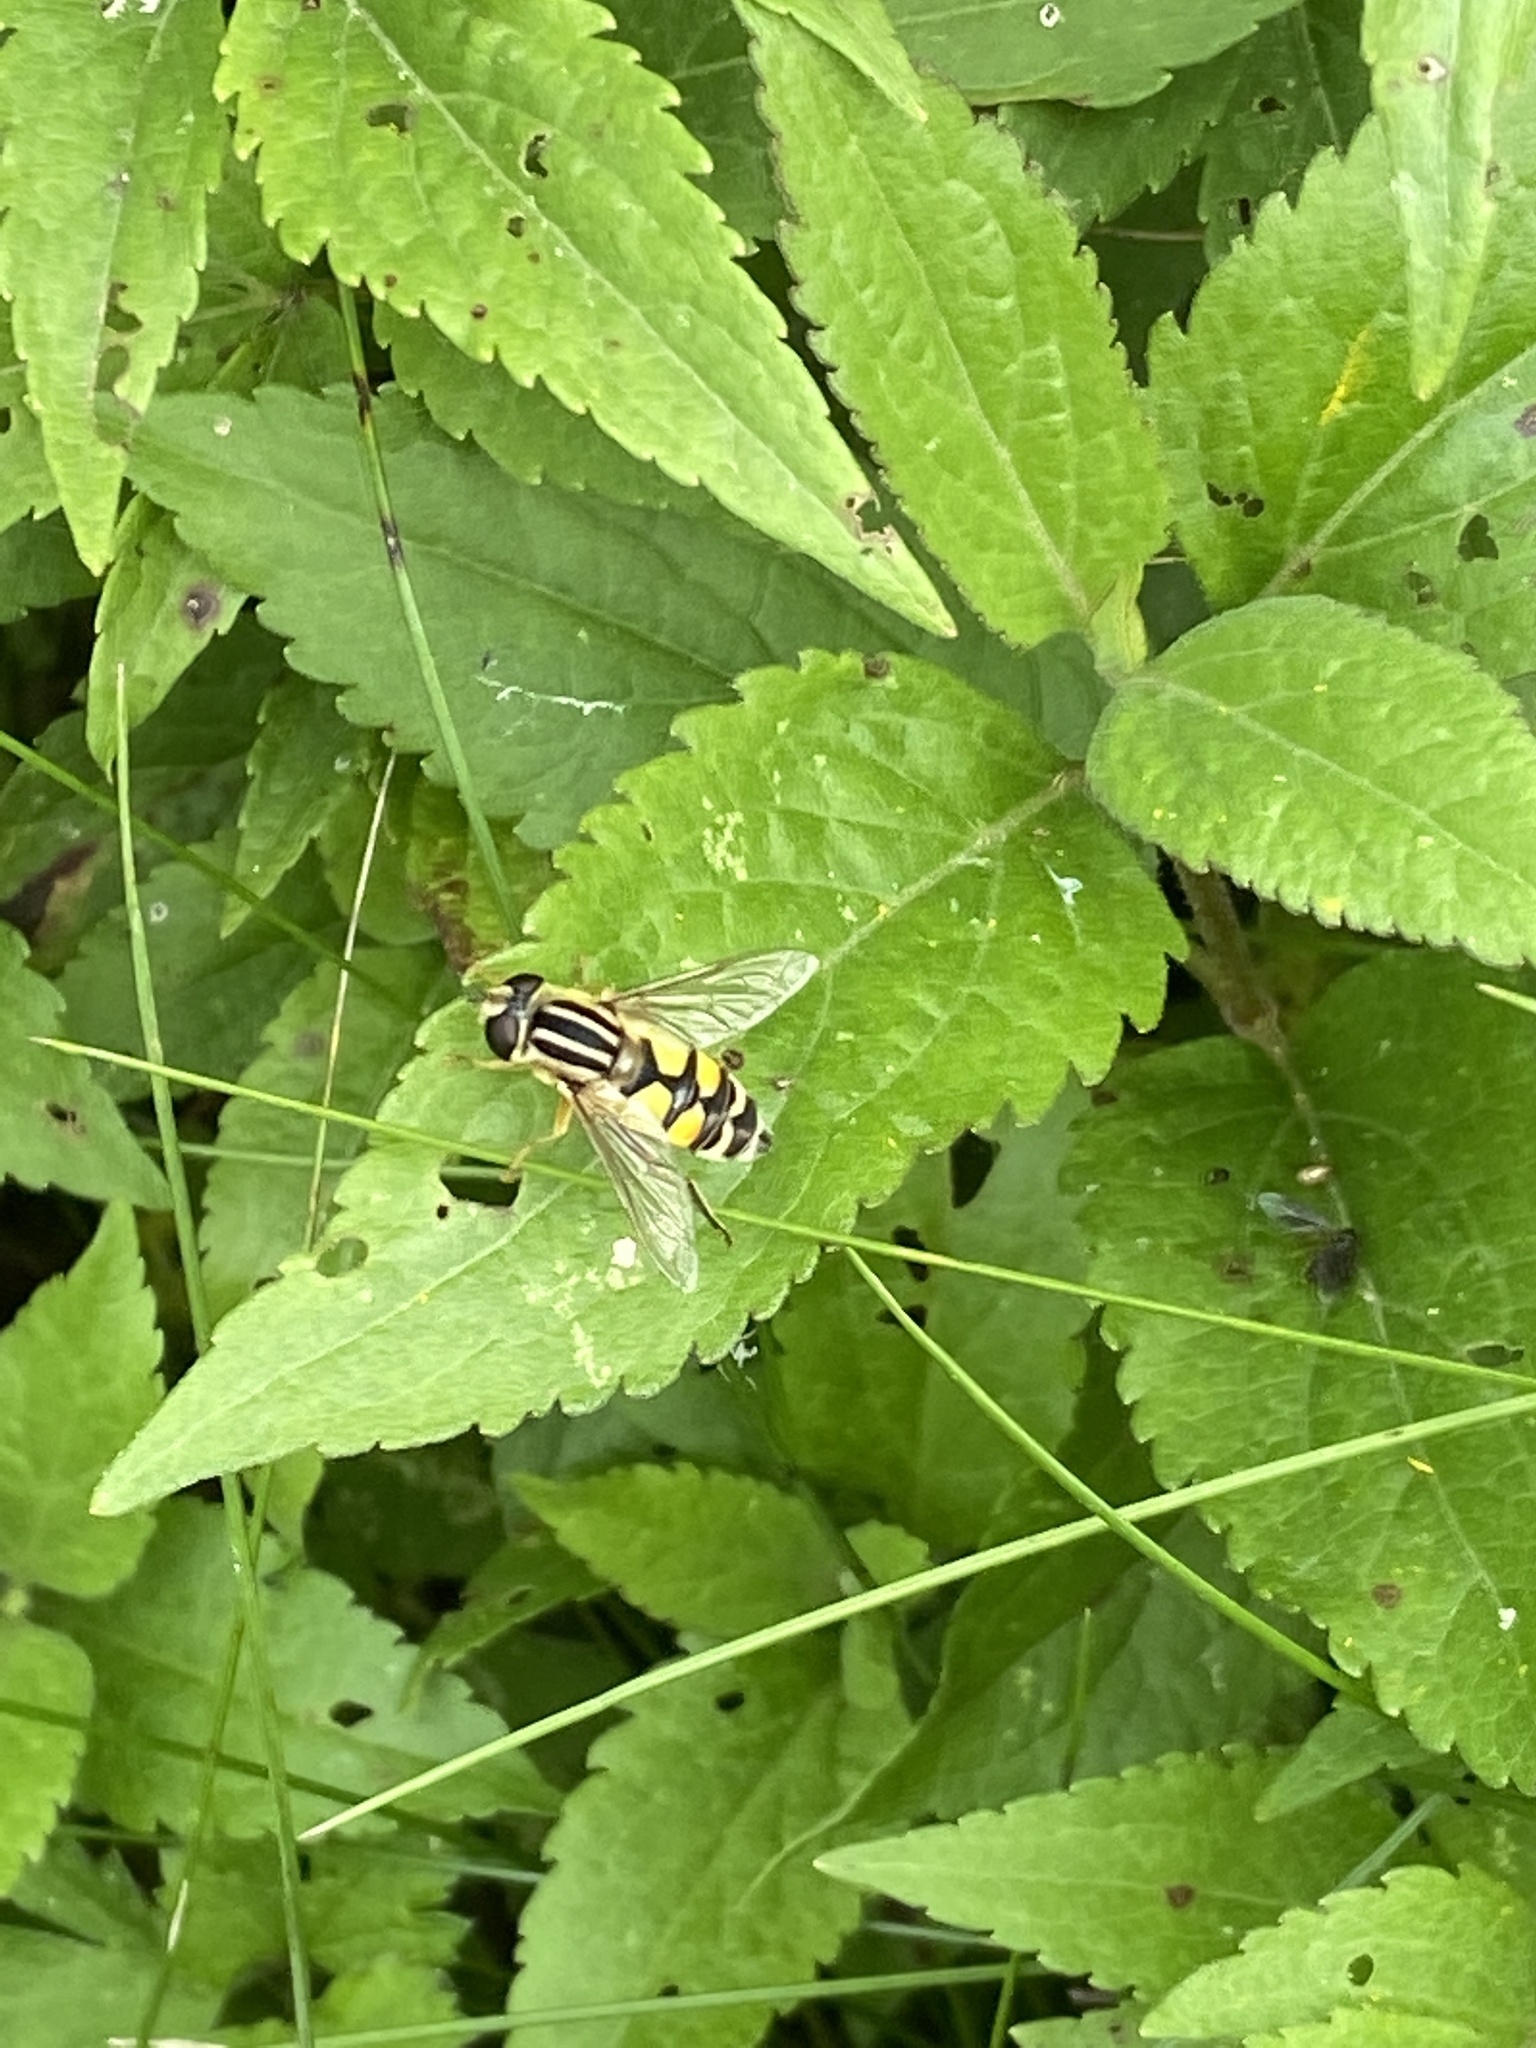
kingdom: Animalia
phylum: Arthropoda
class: Insecta
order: Diptera
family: Syrphidae
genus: Helophilus
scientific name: Helophilus trivittatus
